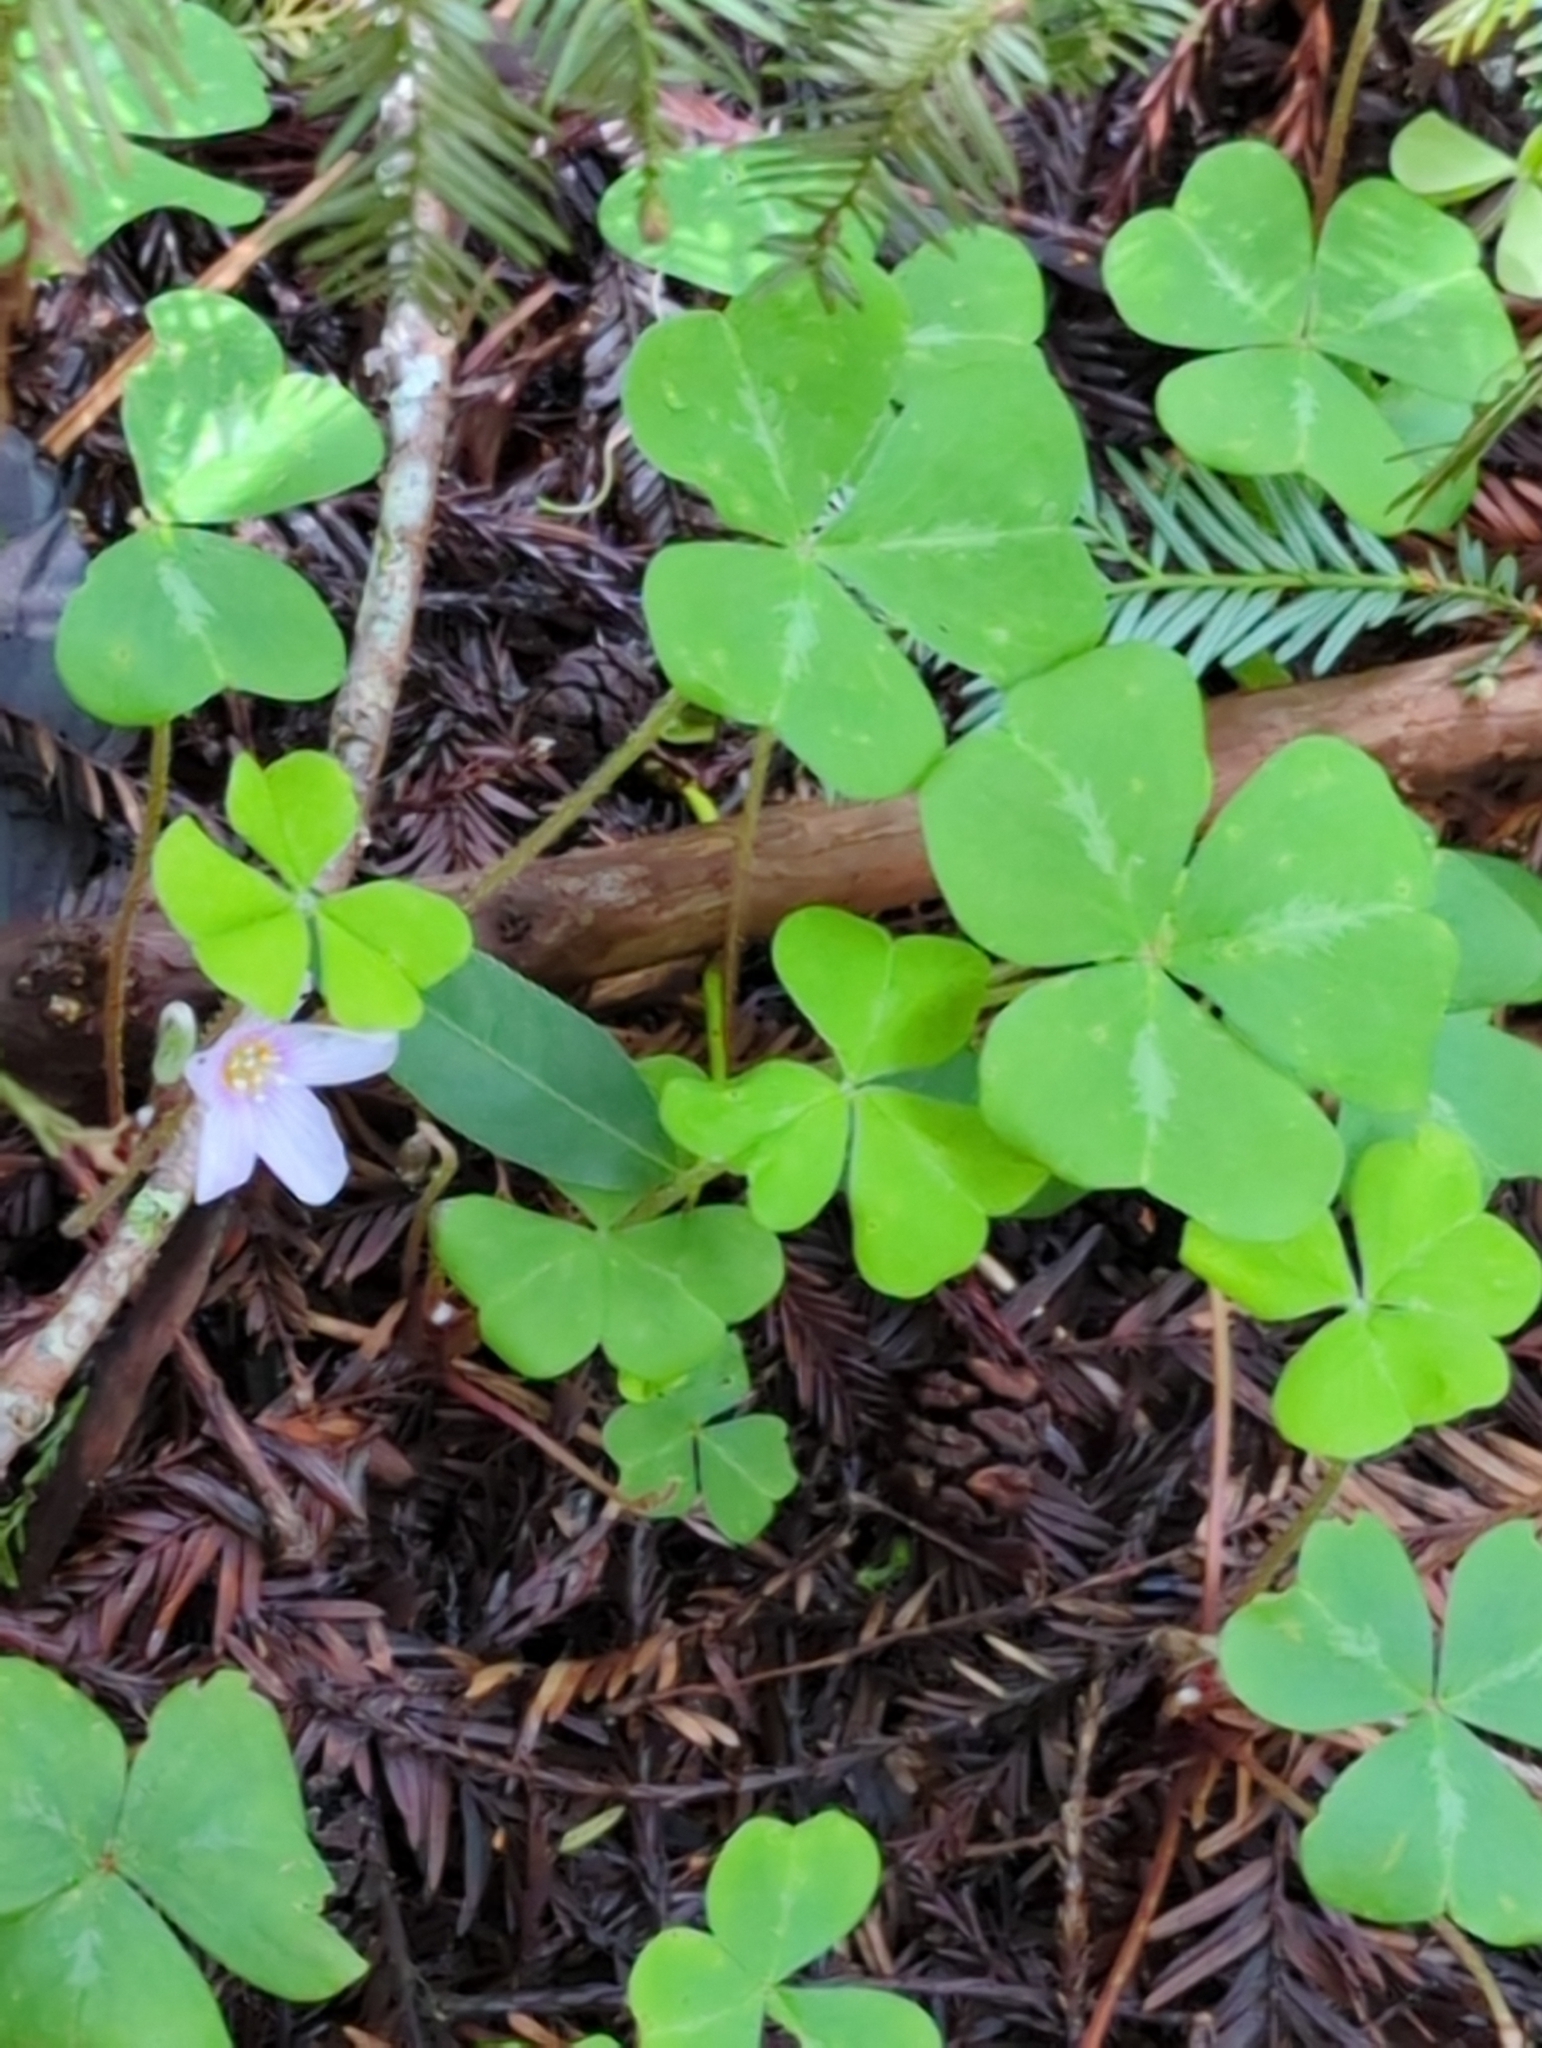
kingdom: Plantae
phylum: Tracheophyta
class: Magnoliopsida
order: Oxalidales
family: Oxalidaceae
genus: Oxalis
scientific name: Oxalis oregana
